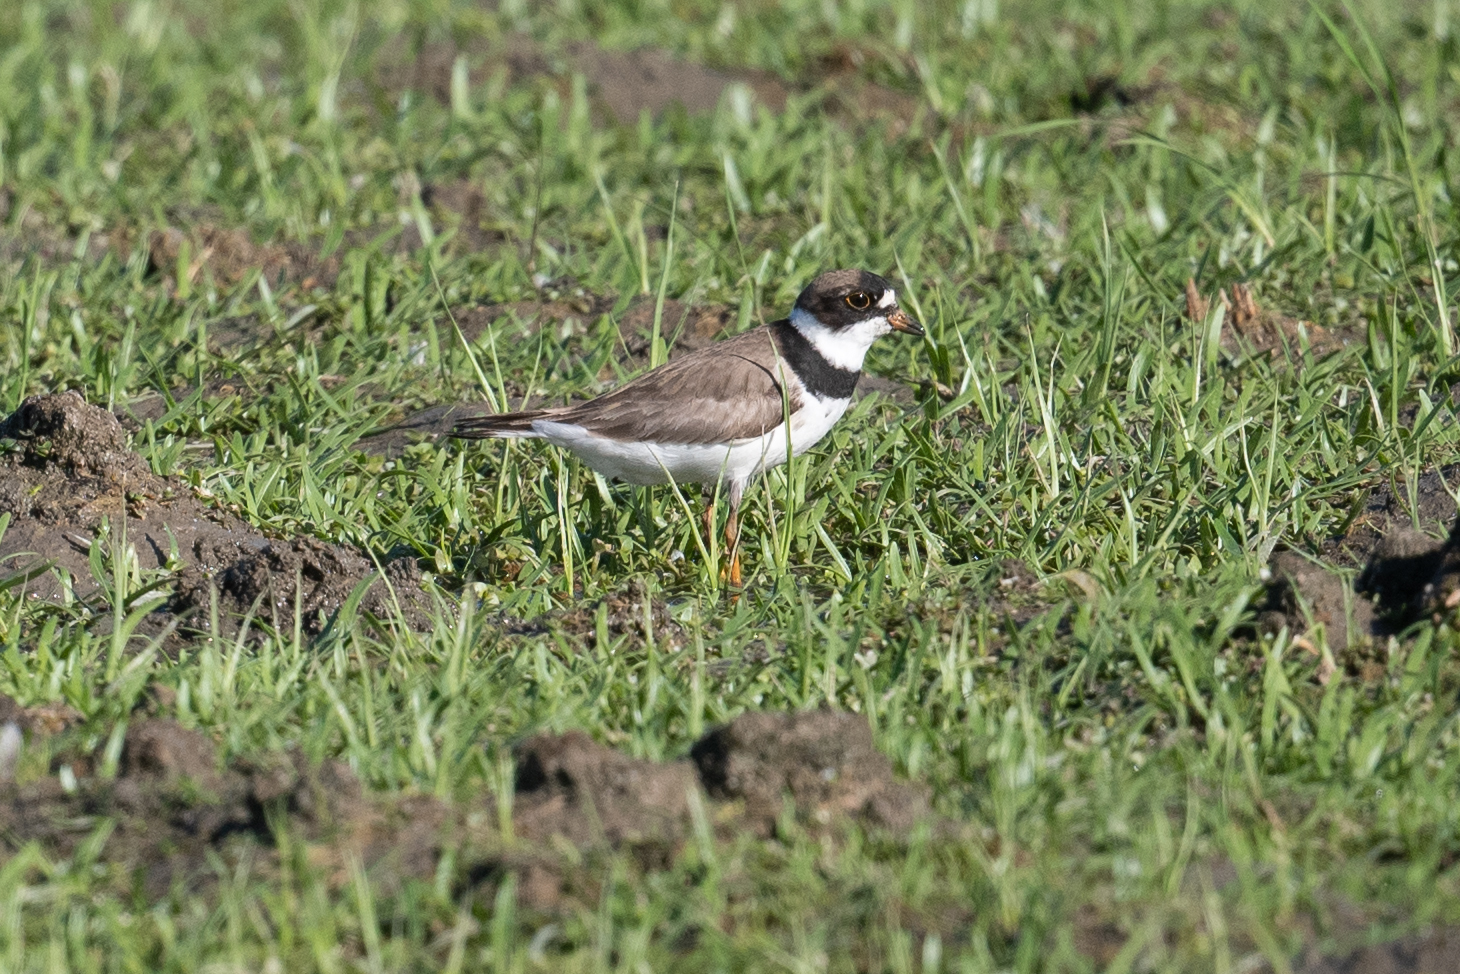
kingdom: Animalia
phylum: Chordata
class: Aves
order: Charadriiformes
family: Charadriidae
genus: Charadrius
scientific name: Charadrius semipalmatus
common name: Semipalmated plover
